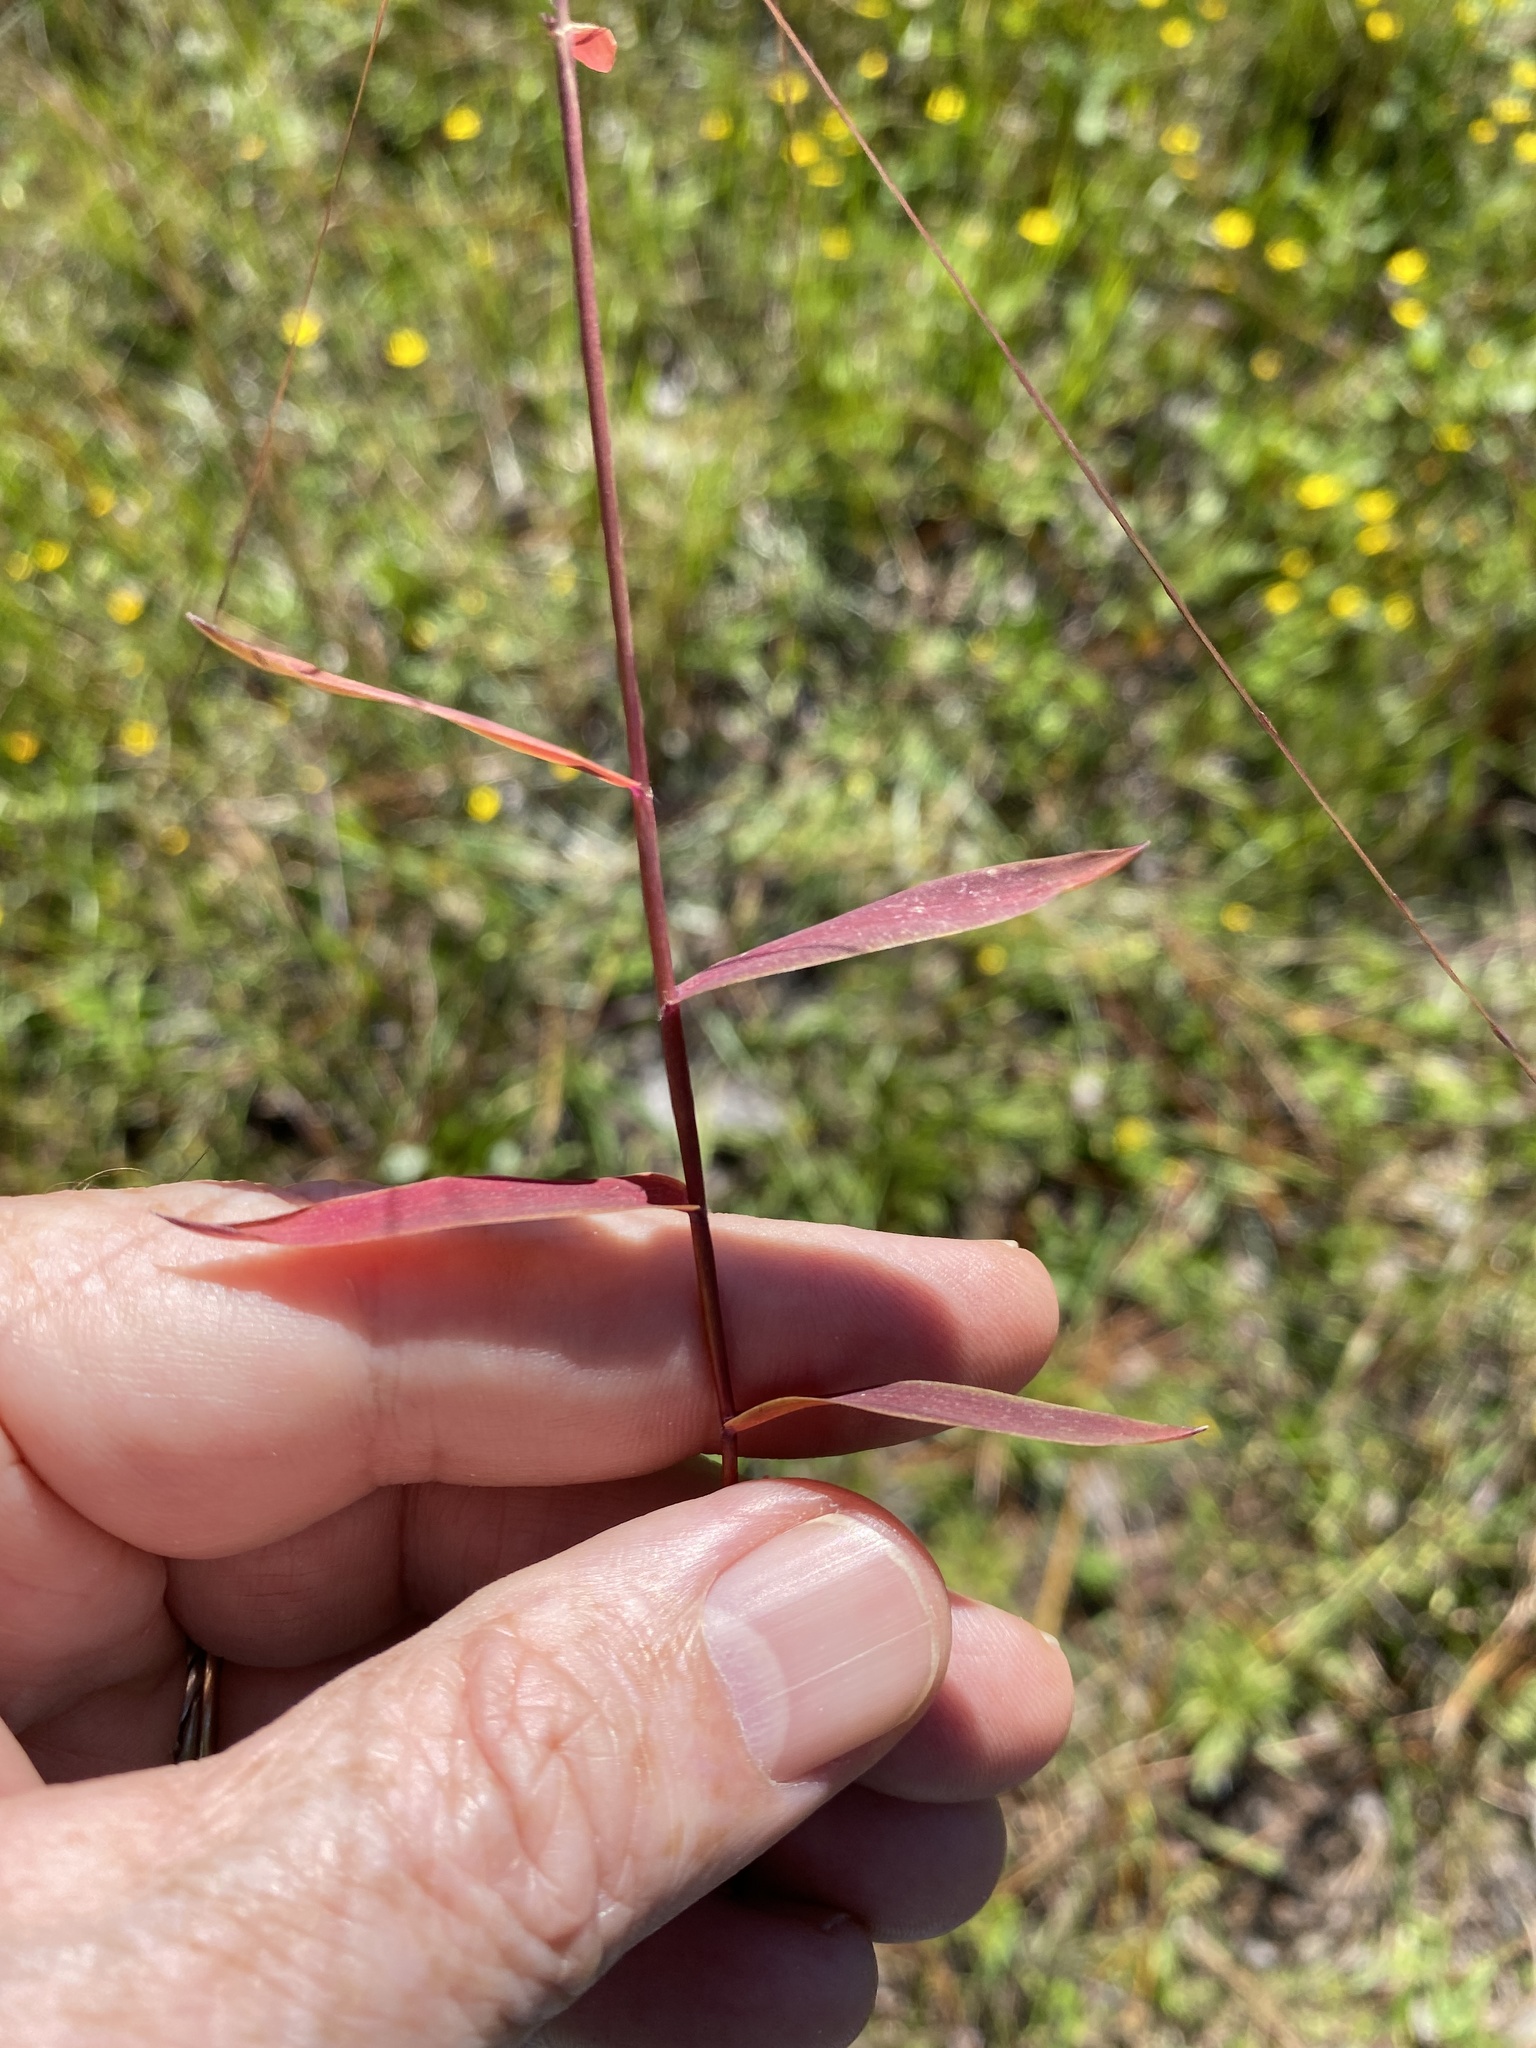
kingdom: Plantae
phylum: Tracheophyta
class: Liliopsida
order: Poales
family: Poaceae
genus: Gymnopogon
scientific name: Gymnopogon brevifolius
